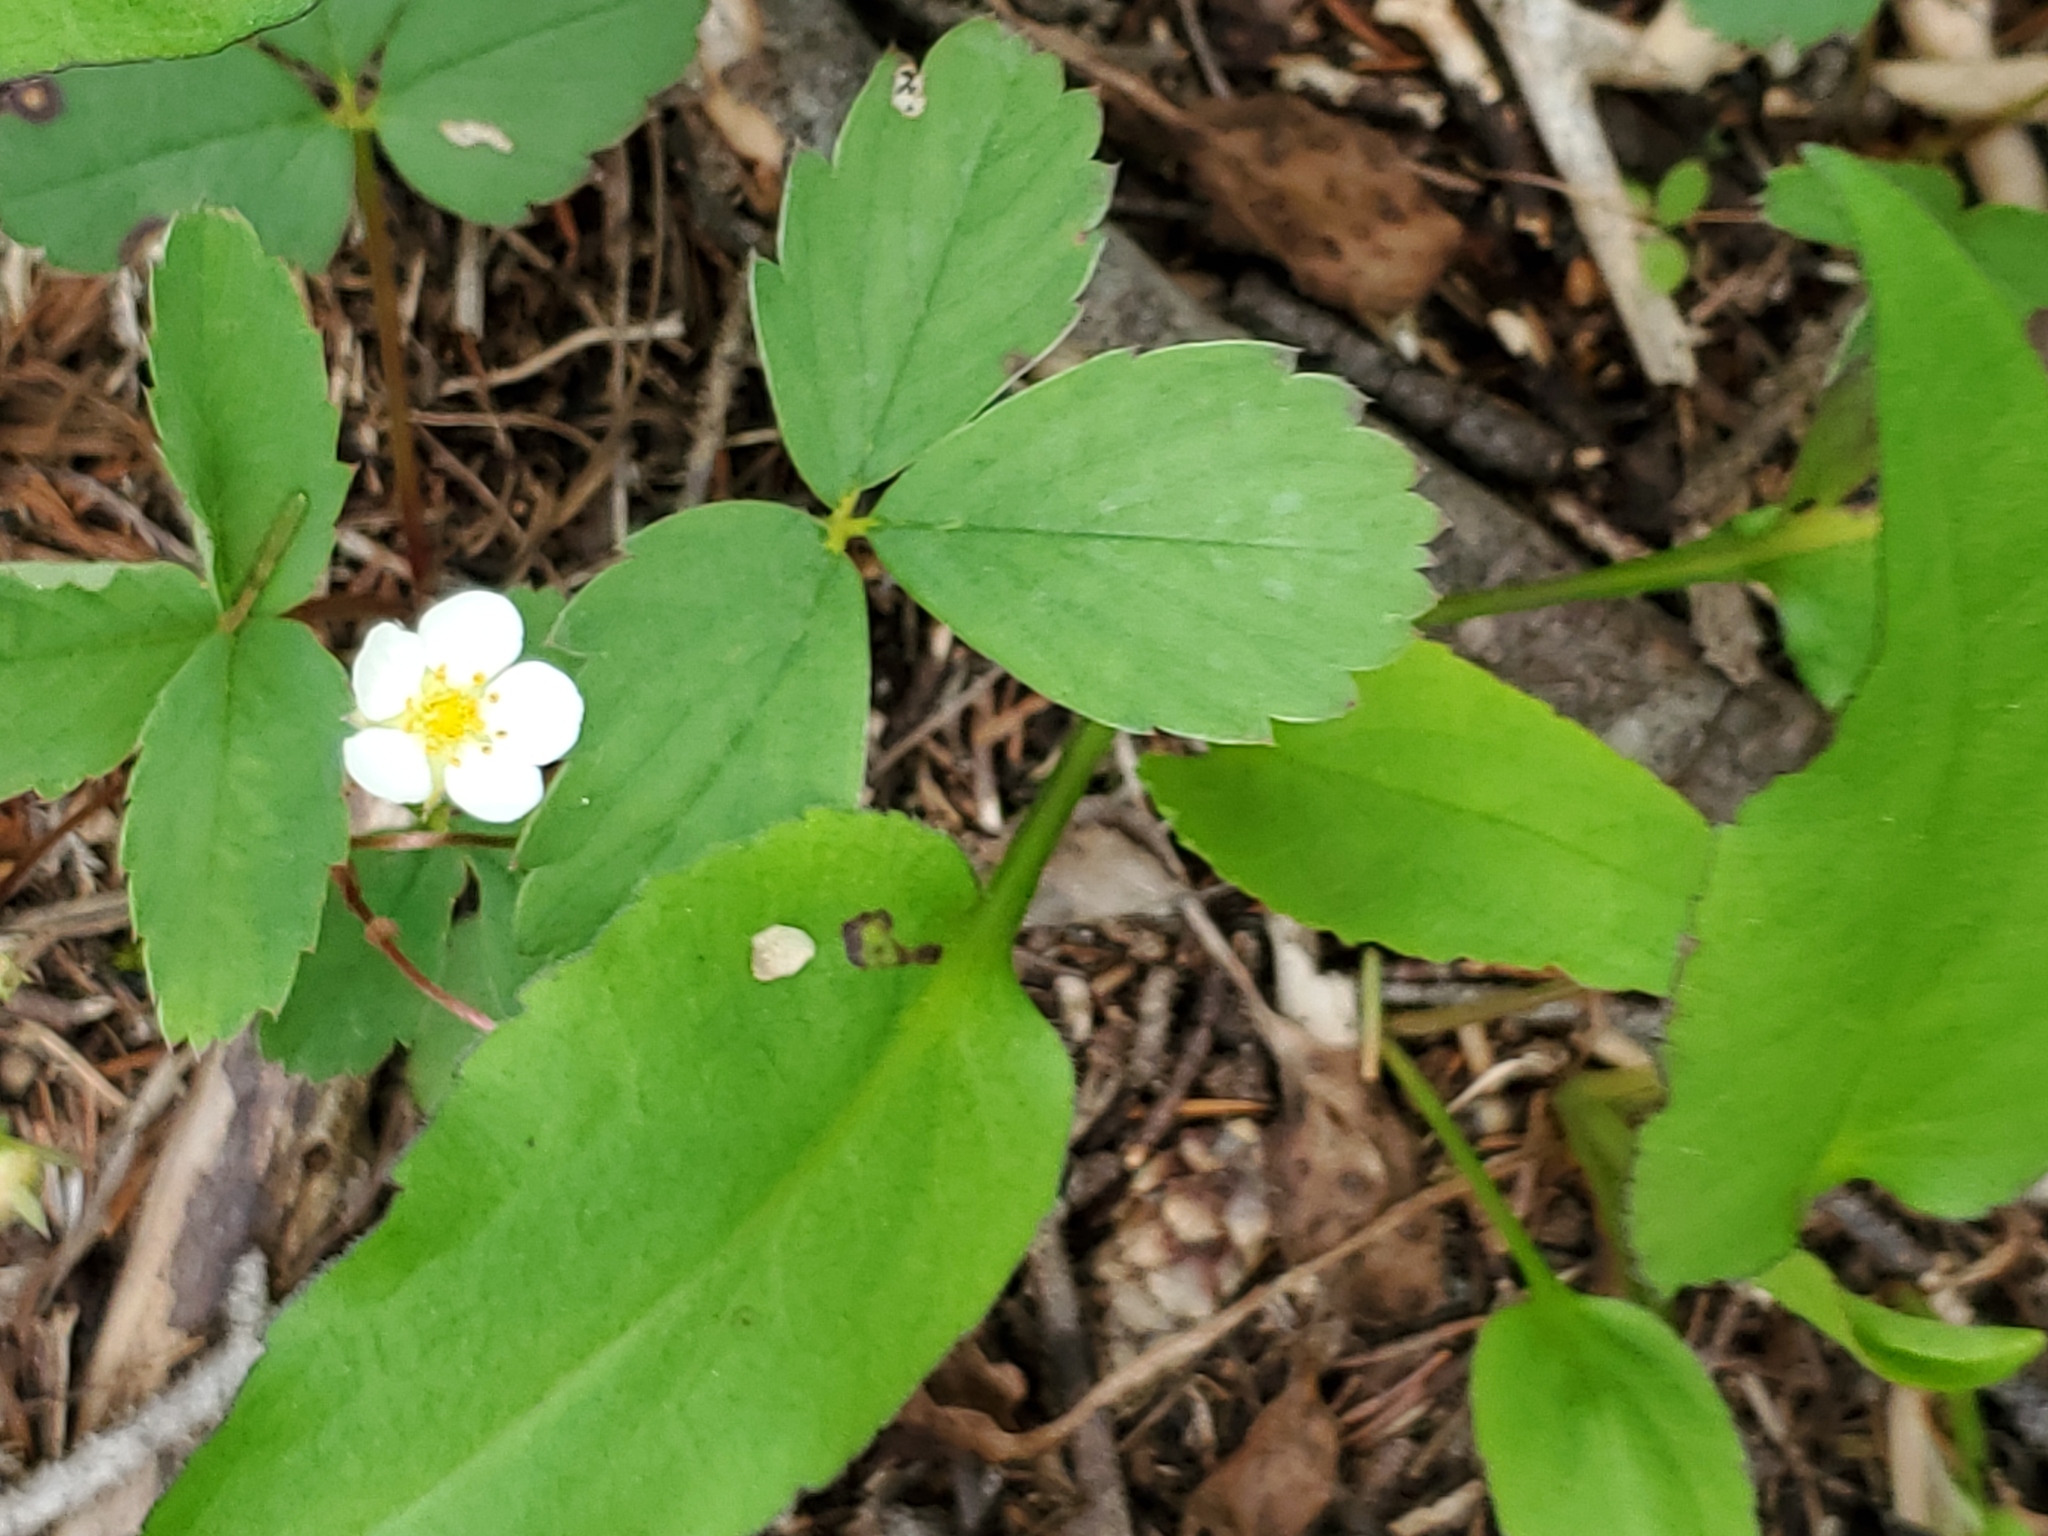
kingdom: Plantae
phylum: Tracheophyta
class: Magnoliopsida
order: Rosales
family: Rosaceae
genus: Fragaria
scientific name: Fragaria virginiana
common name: Thickleaved wild strawberry
